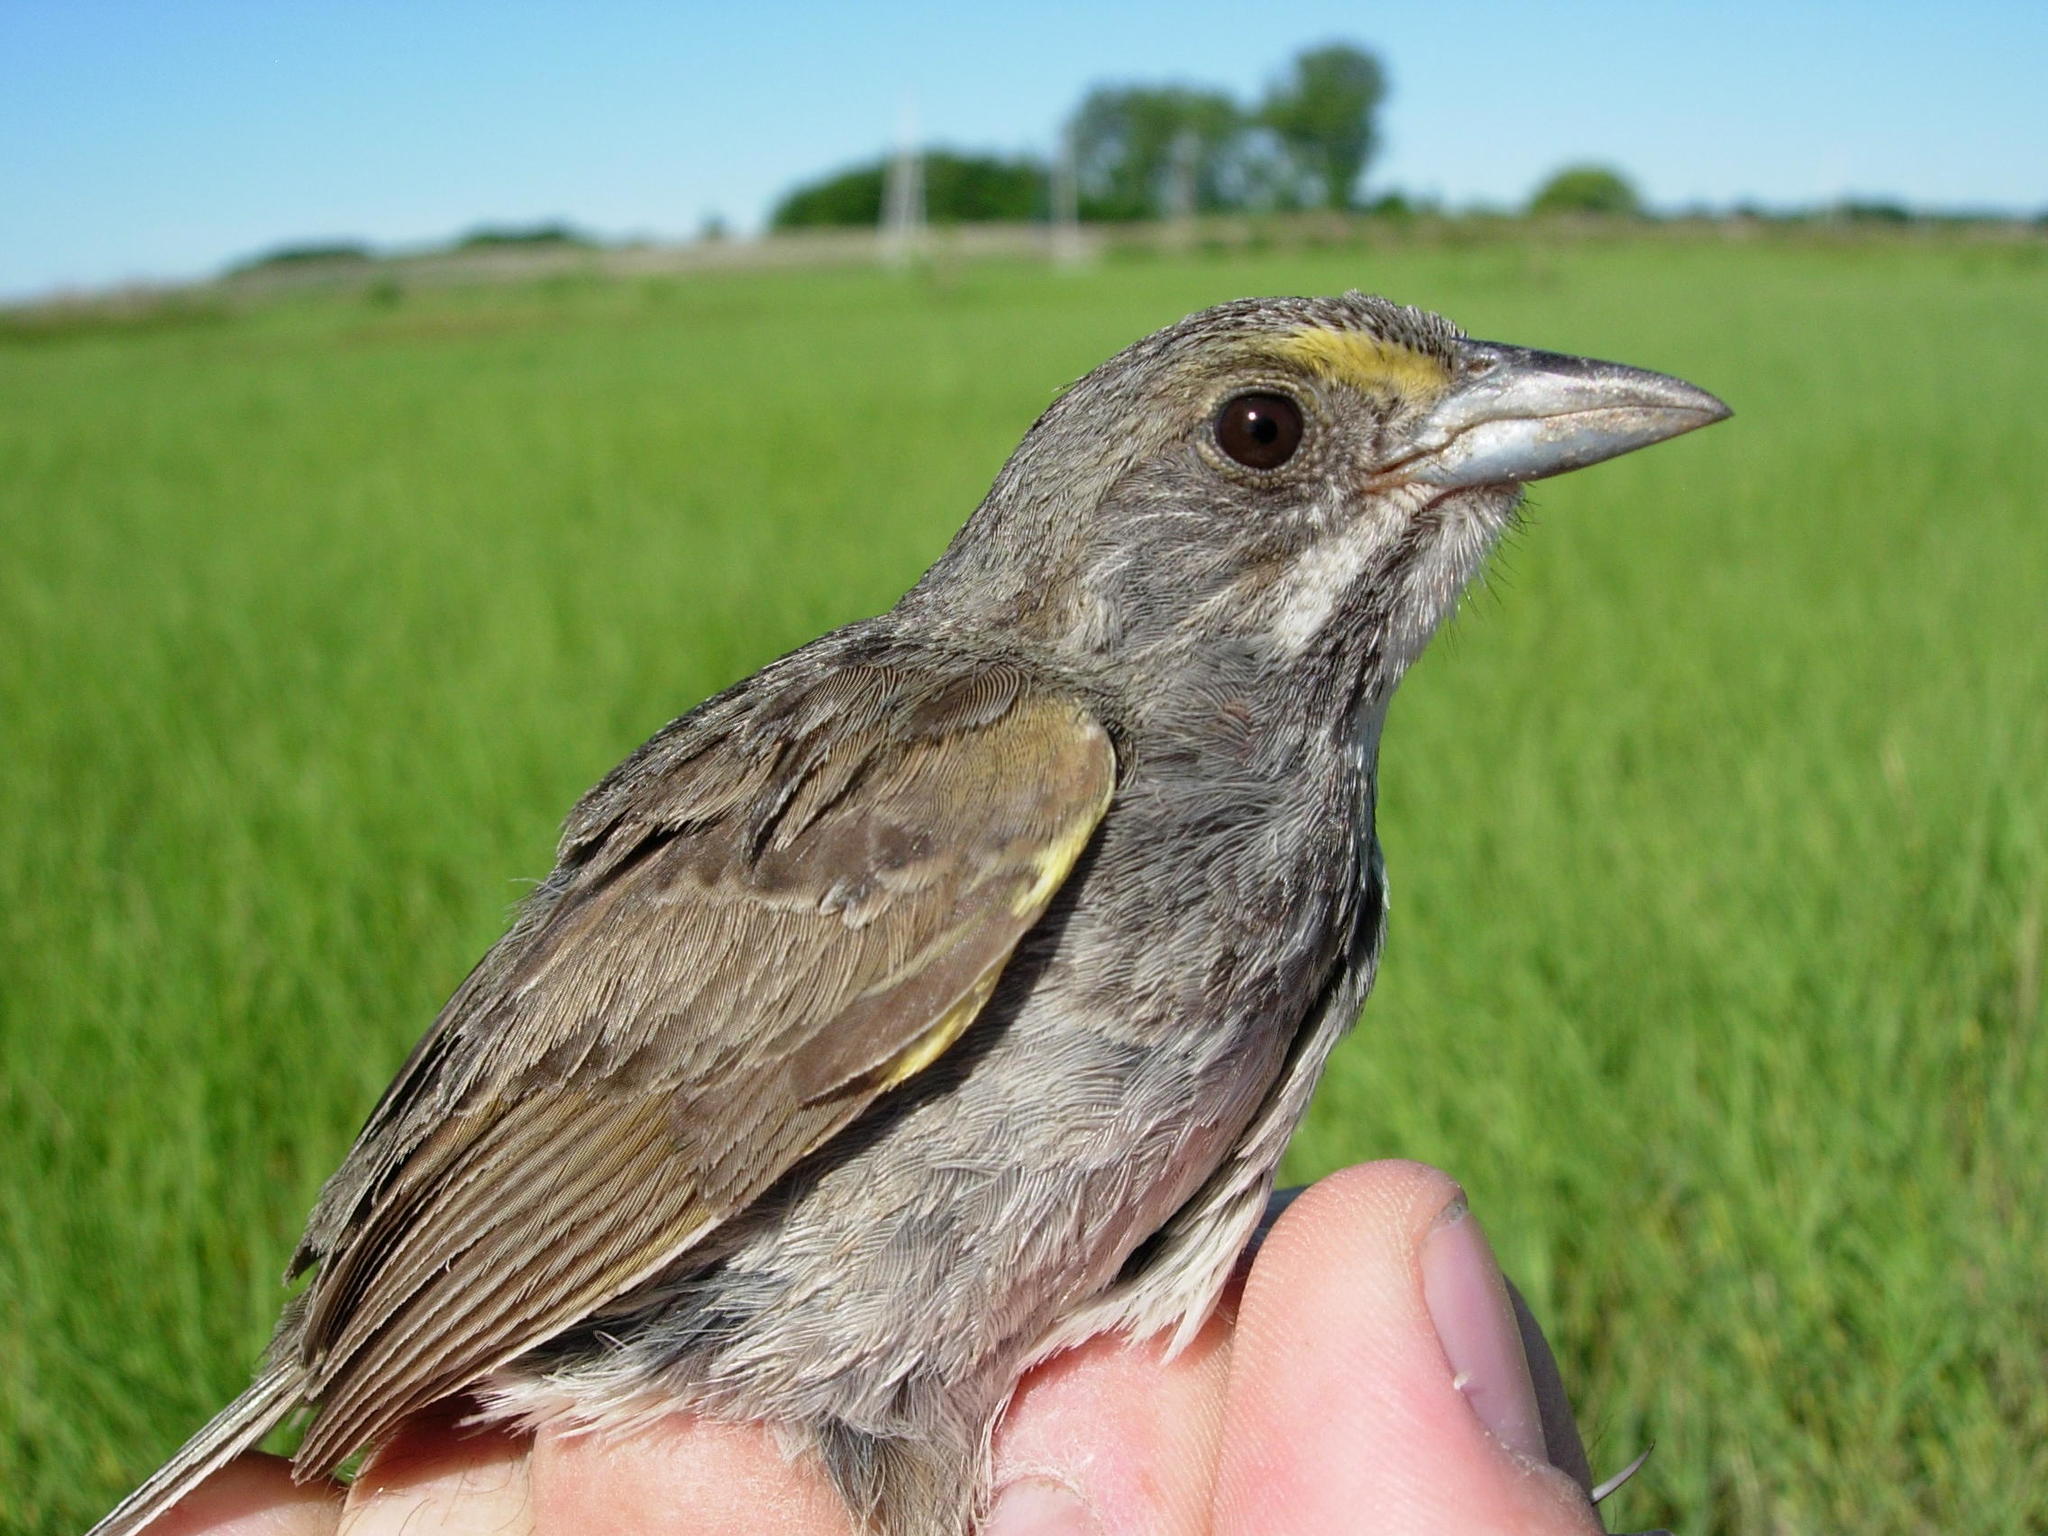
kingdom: Animalia
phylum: Chordata
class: Aves
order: Passeriformes
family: Passerellidae
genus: Ammospiza
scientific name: Ammospiza maritima
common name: Seaside sparrow
